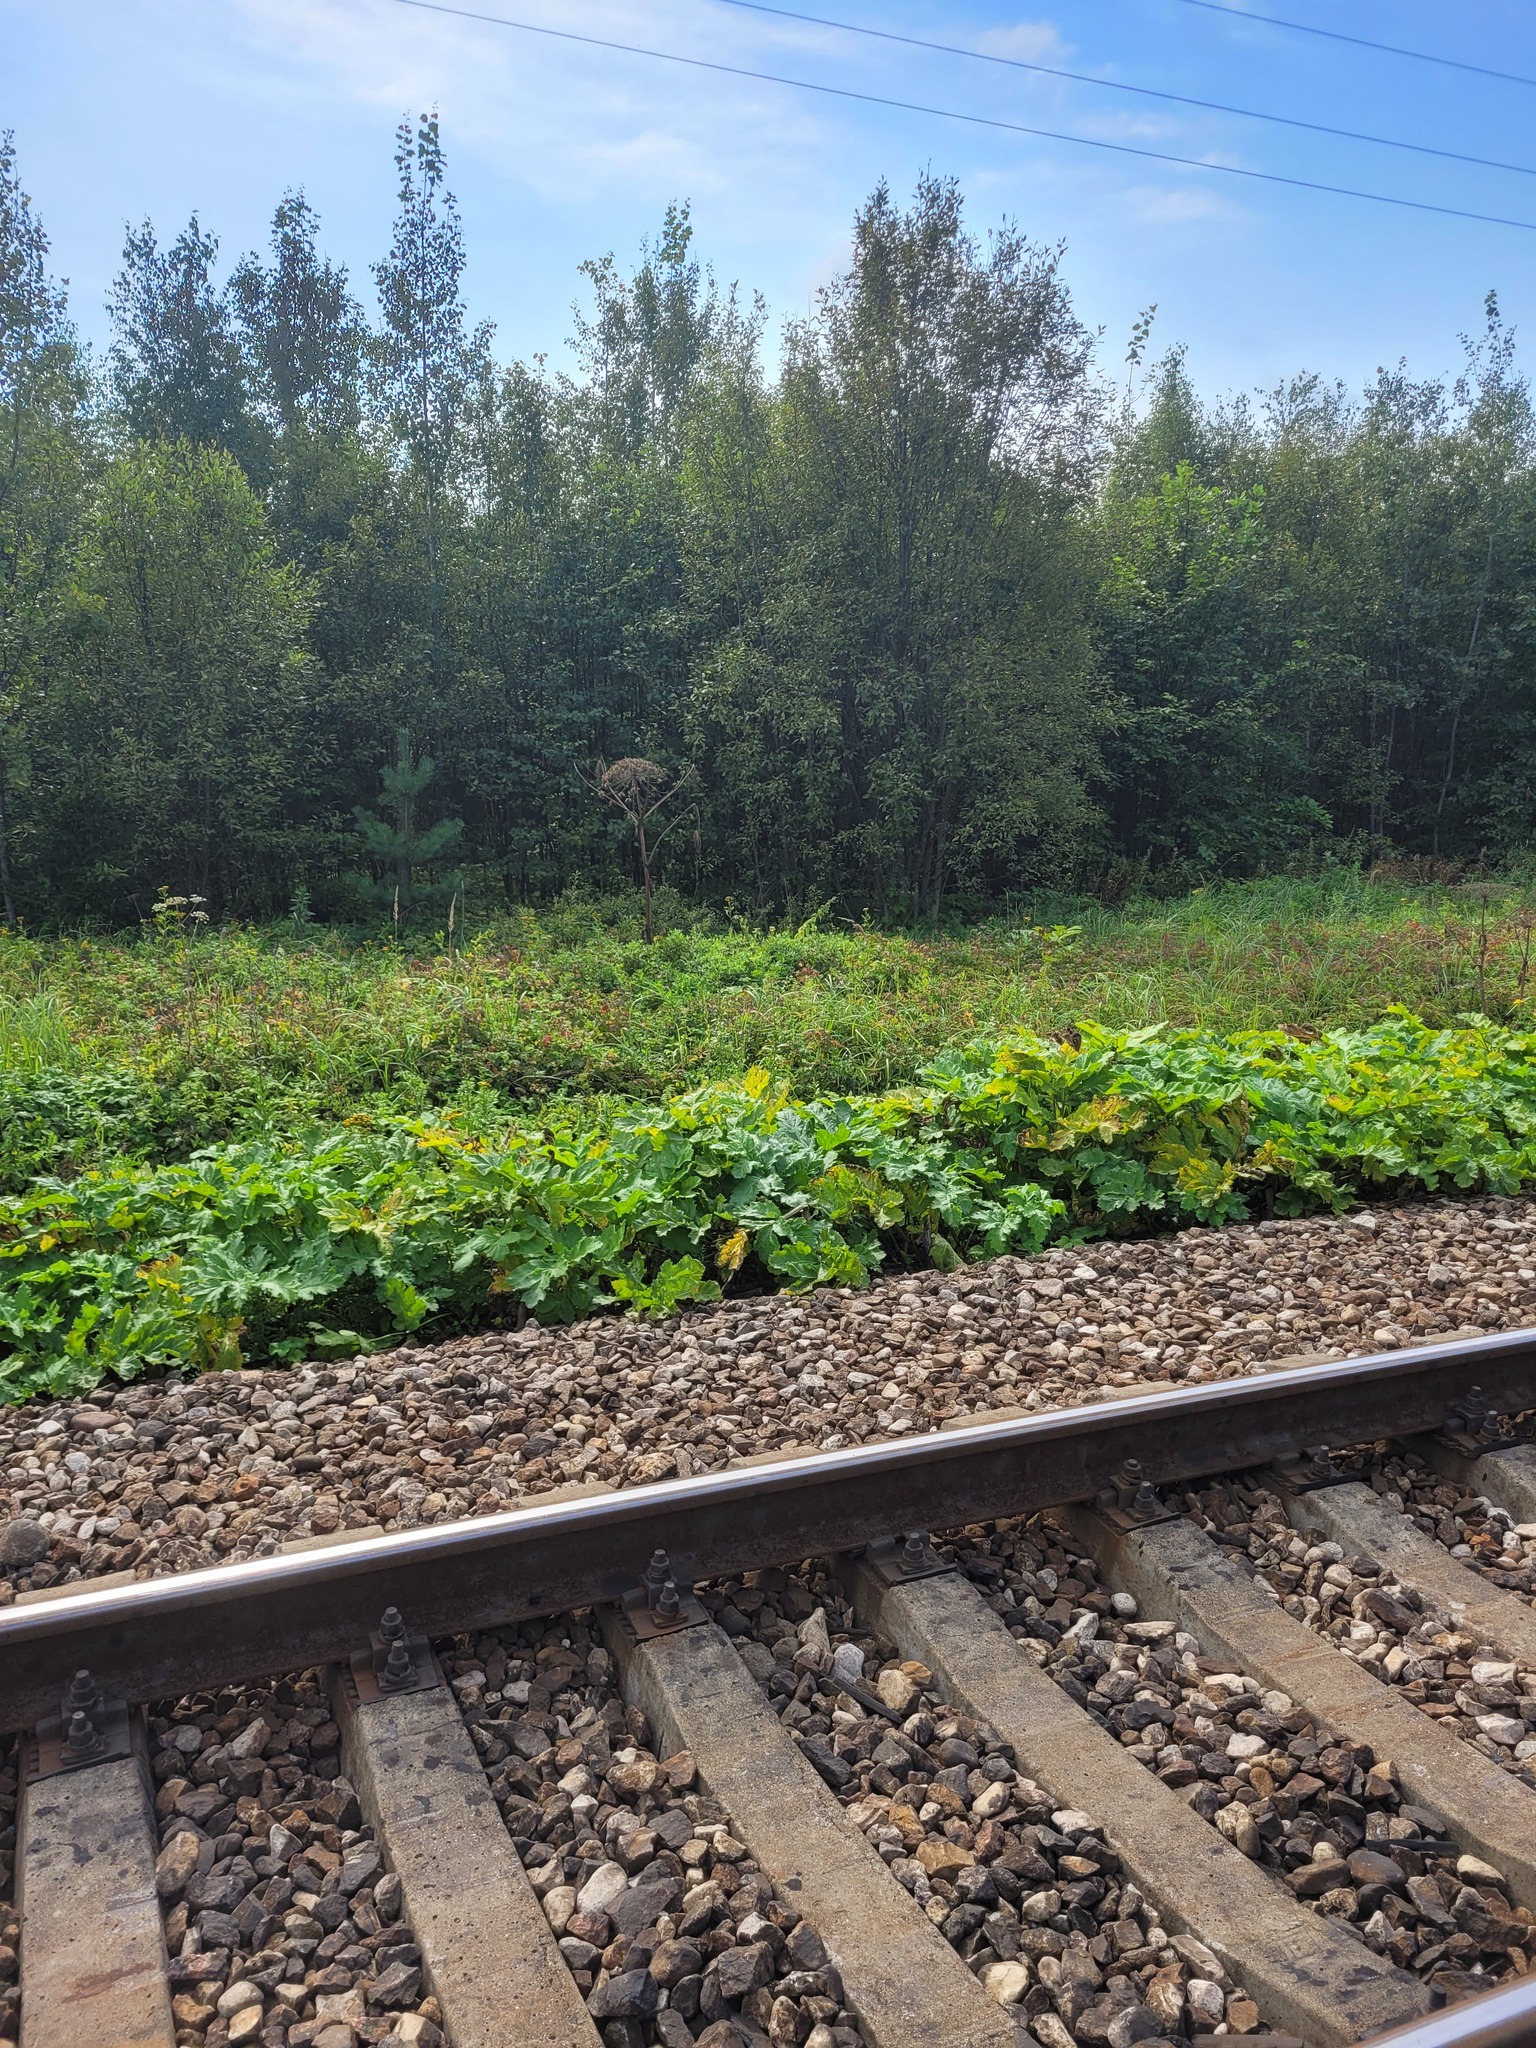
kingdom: Plantae
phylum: Tracheophyta
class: Magnoliopsida
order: Apiales
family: Apiaceae
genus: Heracleum
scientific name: Heracleum sosnowskyi
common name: Sosnowsky's hogweed
